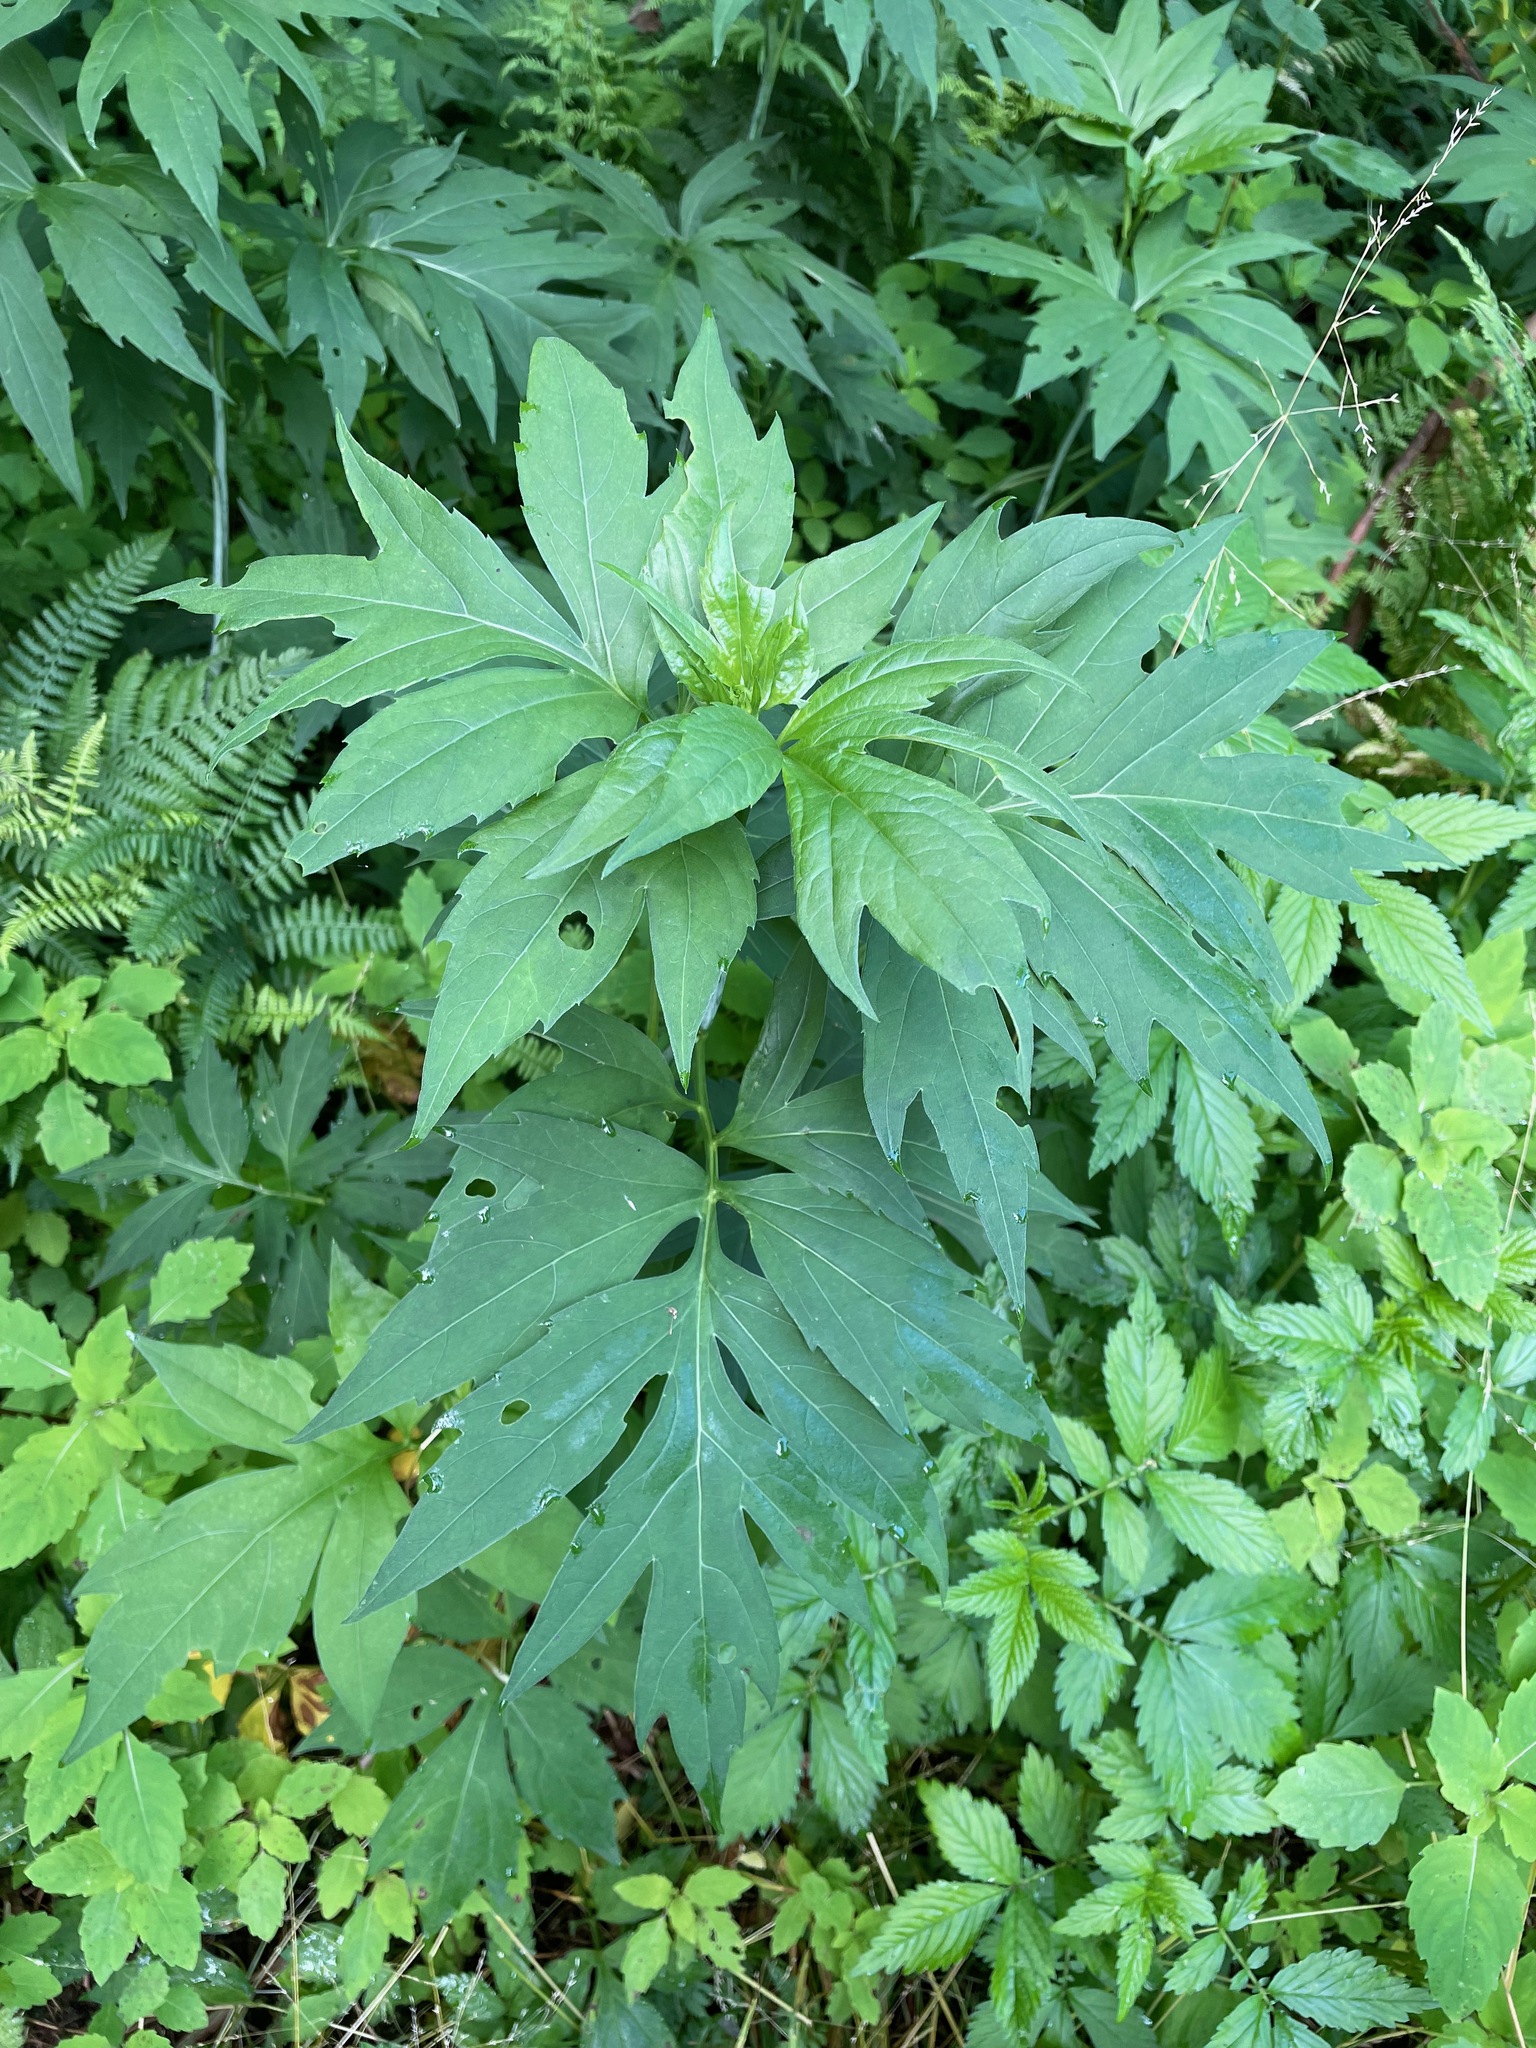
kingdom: Plantae
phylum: Tracheophyta
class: Magnoliopsida
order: Asterales
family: Asteraceae
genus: Rudbeckia
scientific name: Rudbeckia laciniata
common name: Coneflower
